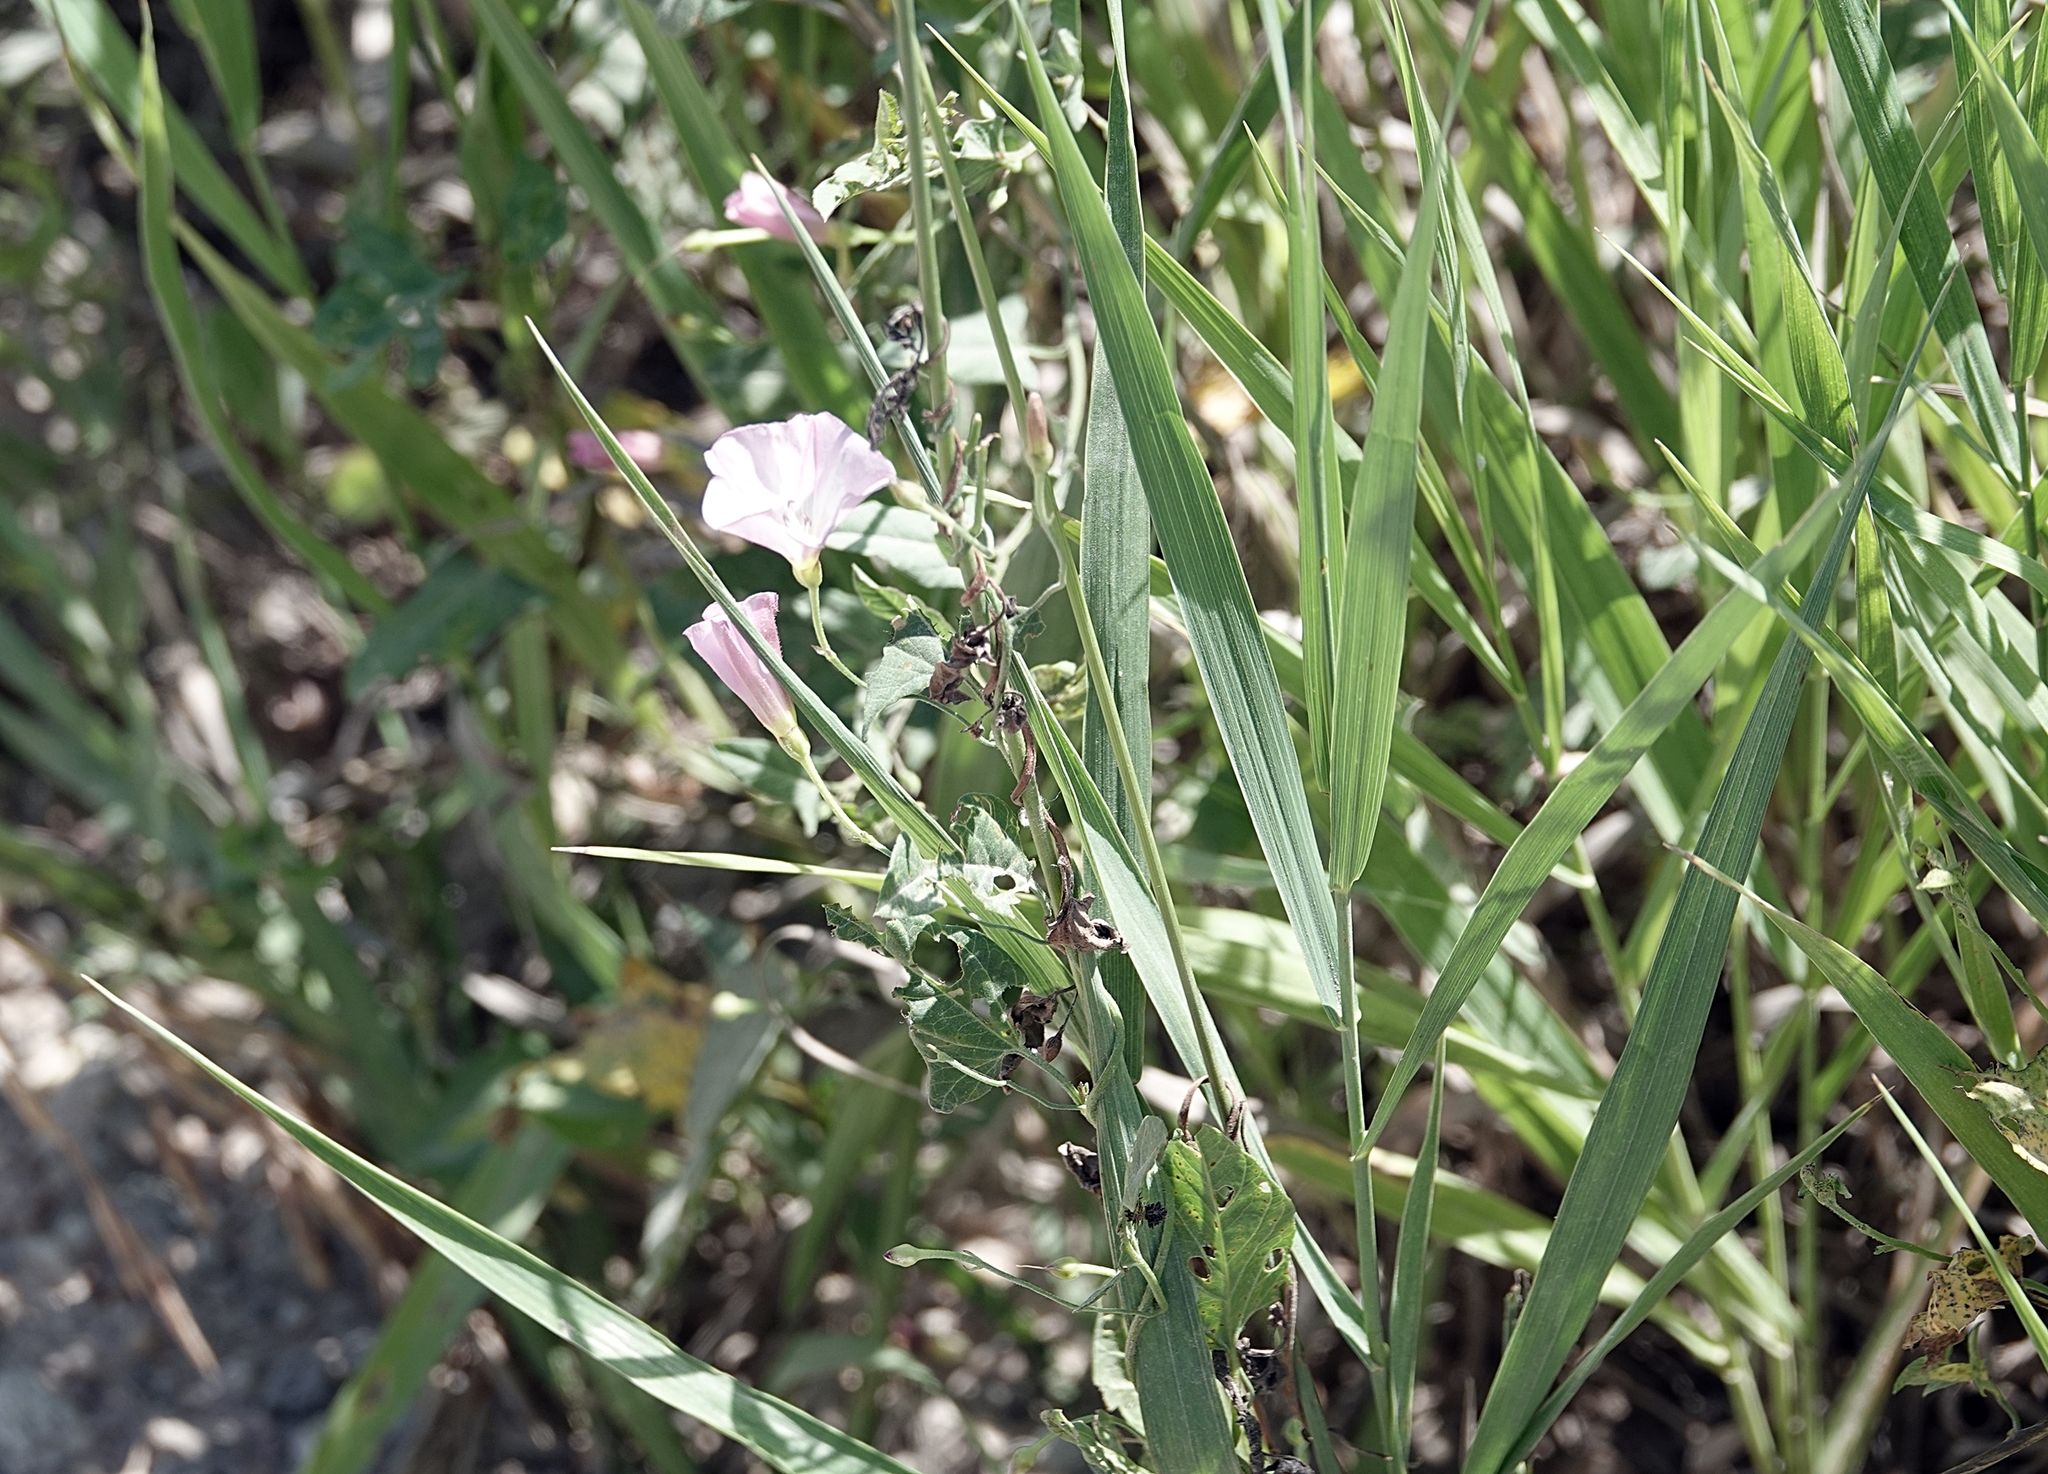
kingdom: Plantae
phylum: Tracheophyta
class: Magnoliopsida
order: Solanales
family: Convolvulaceae
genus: Convolvulus
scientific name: Convolvulus arvensis
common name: Field bindweed
